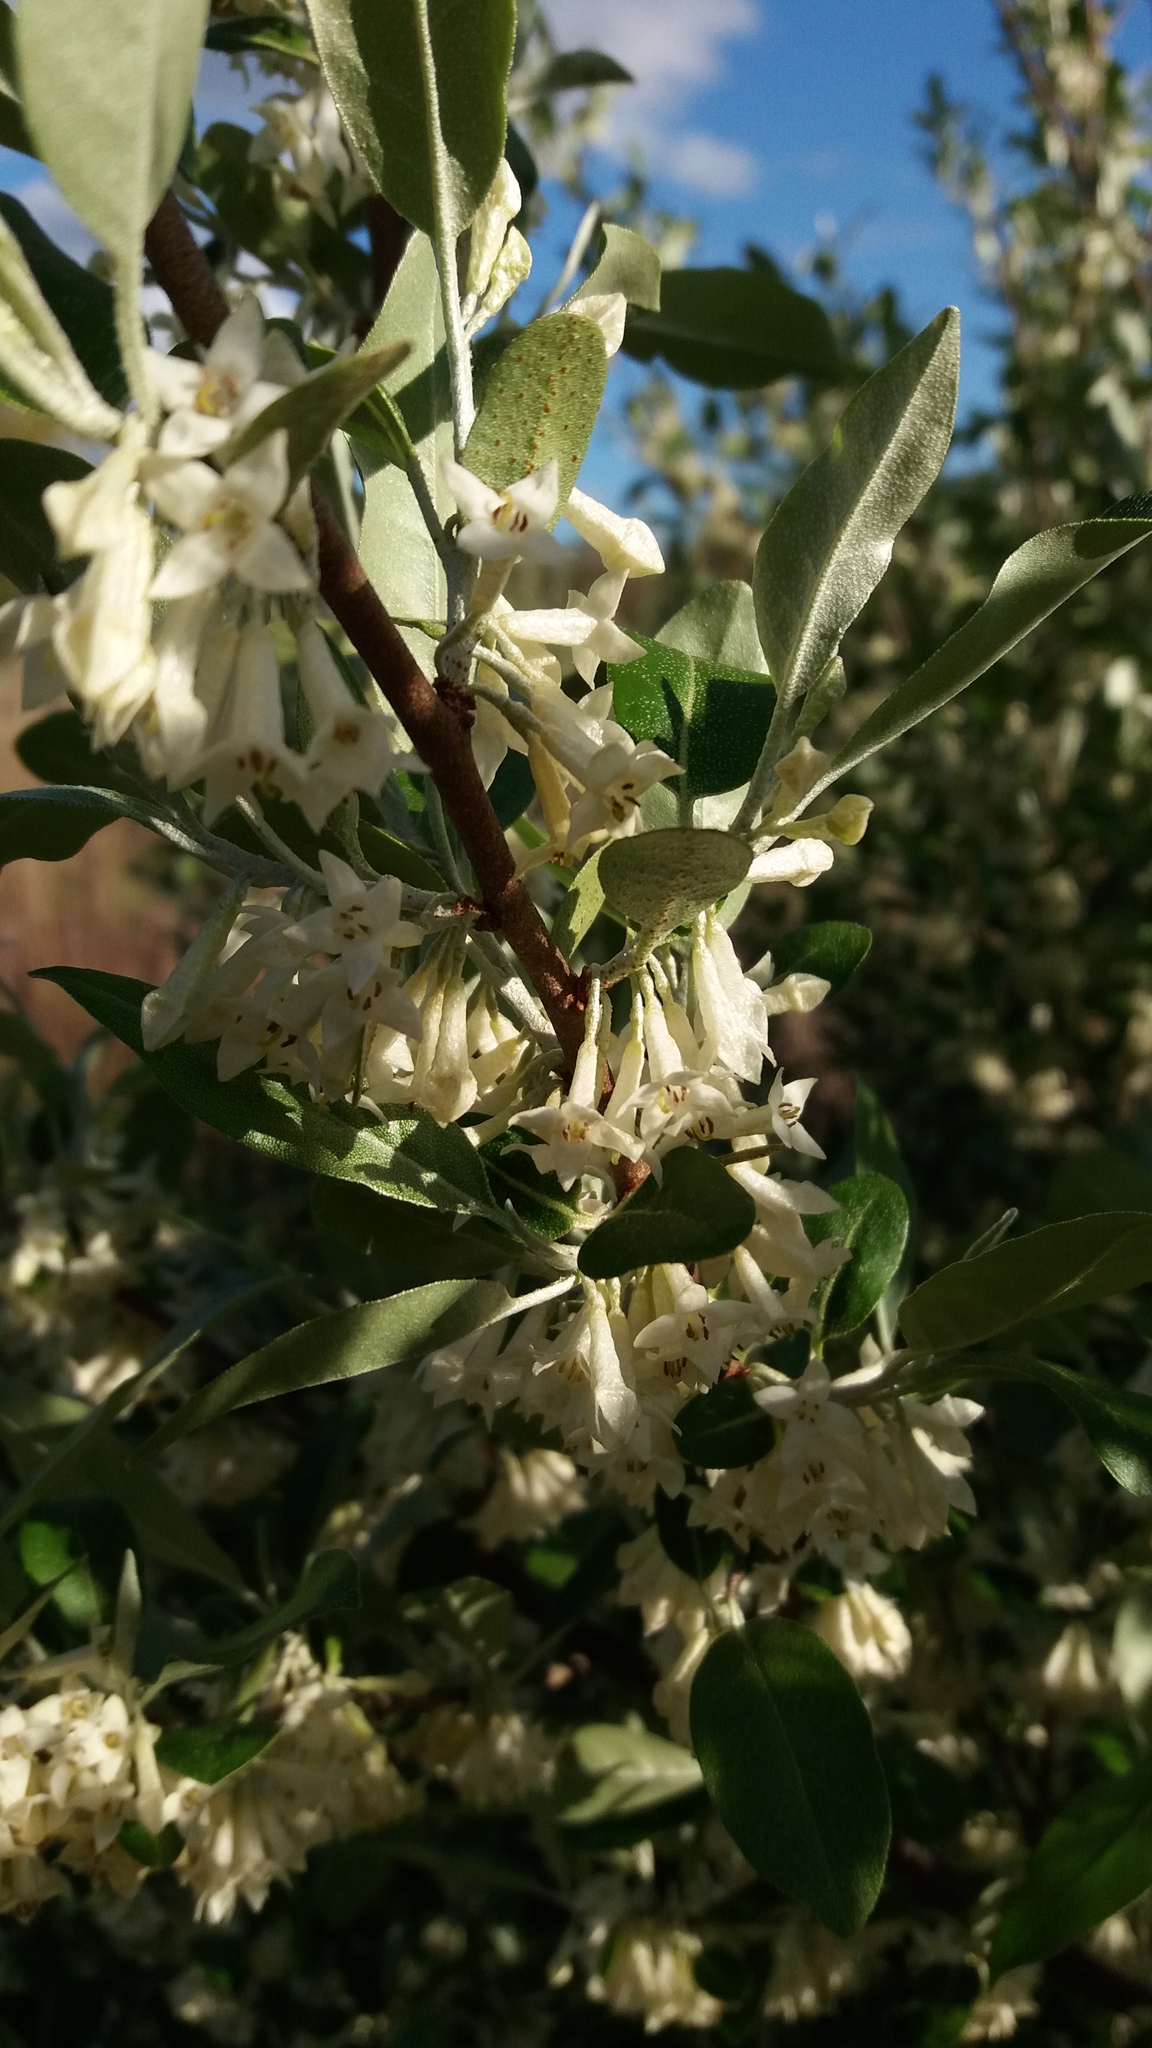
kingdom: Plantae
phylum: Tracheophyta
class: Magnoliopsida
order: Rosales
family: Elaeagnaceae
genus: Elaeagnus
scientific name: Elaeagnus umbellata
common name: Autumn olive
